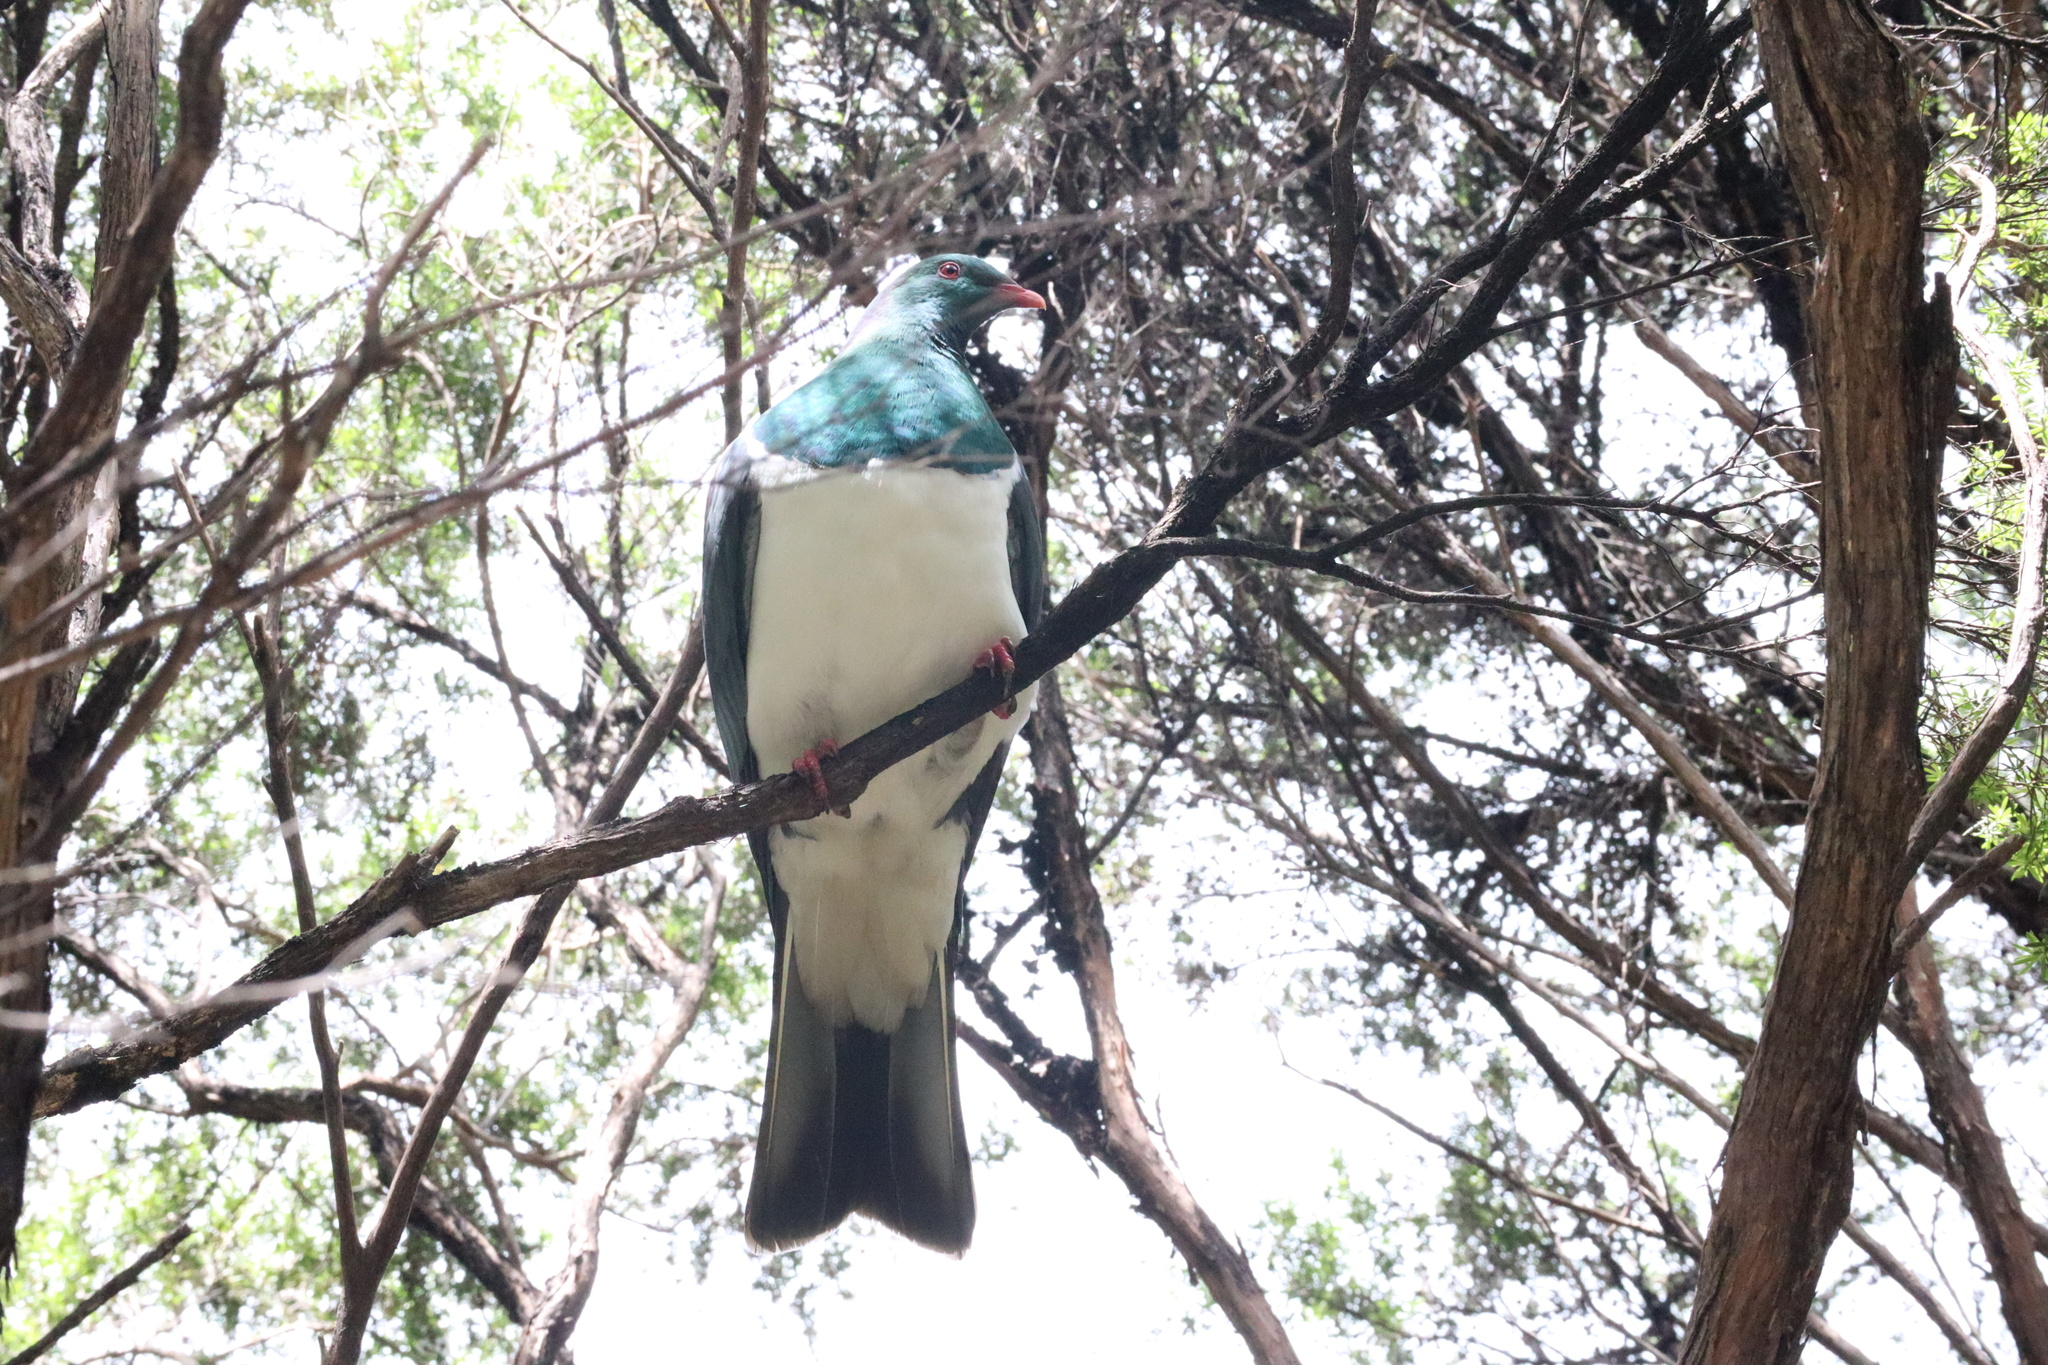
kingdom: Animalia
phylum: Chordata
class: Aves
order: Columbiformes
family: Columbidae
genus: Hemiphaga
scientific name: Hemiphaga novaeseelandiae
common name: New zealand pigeon
